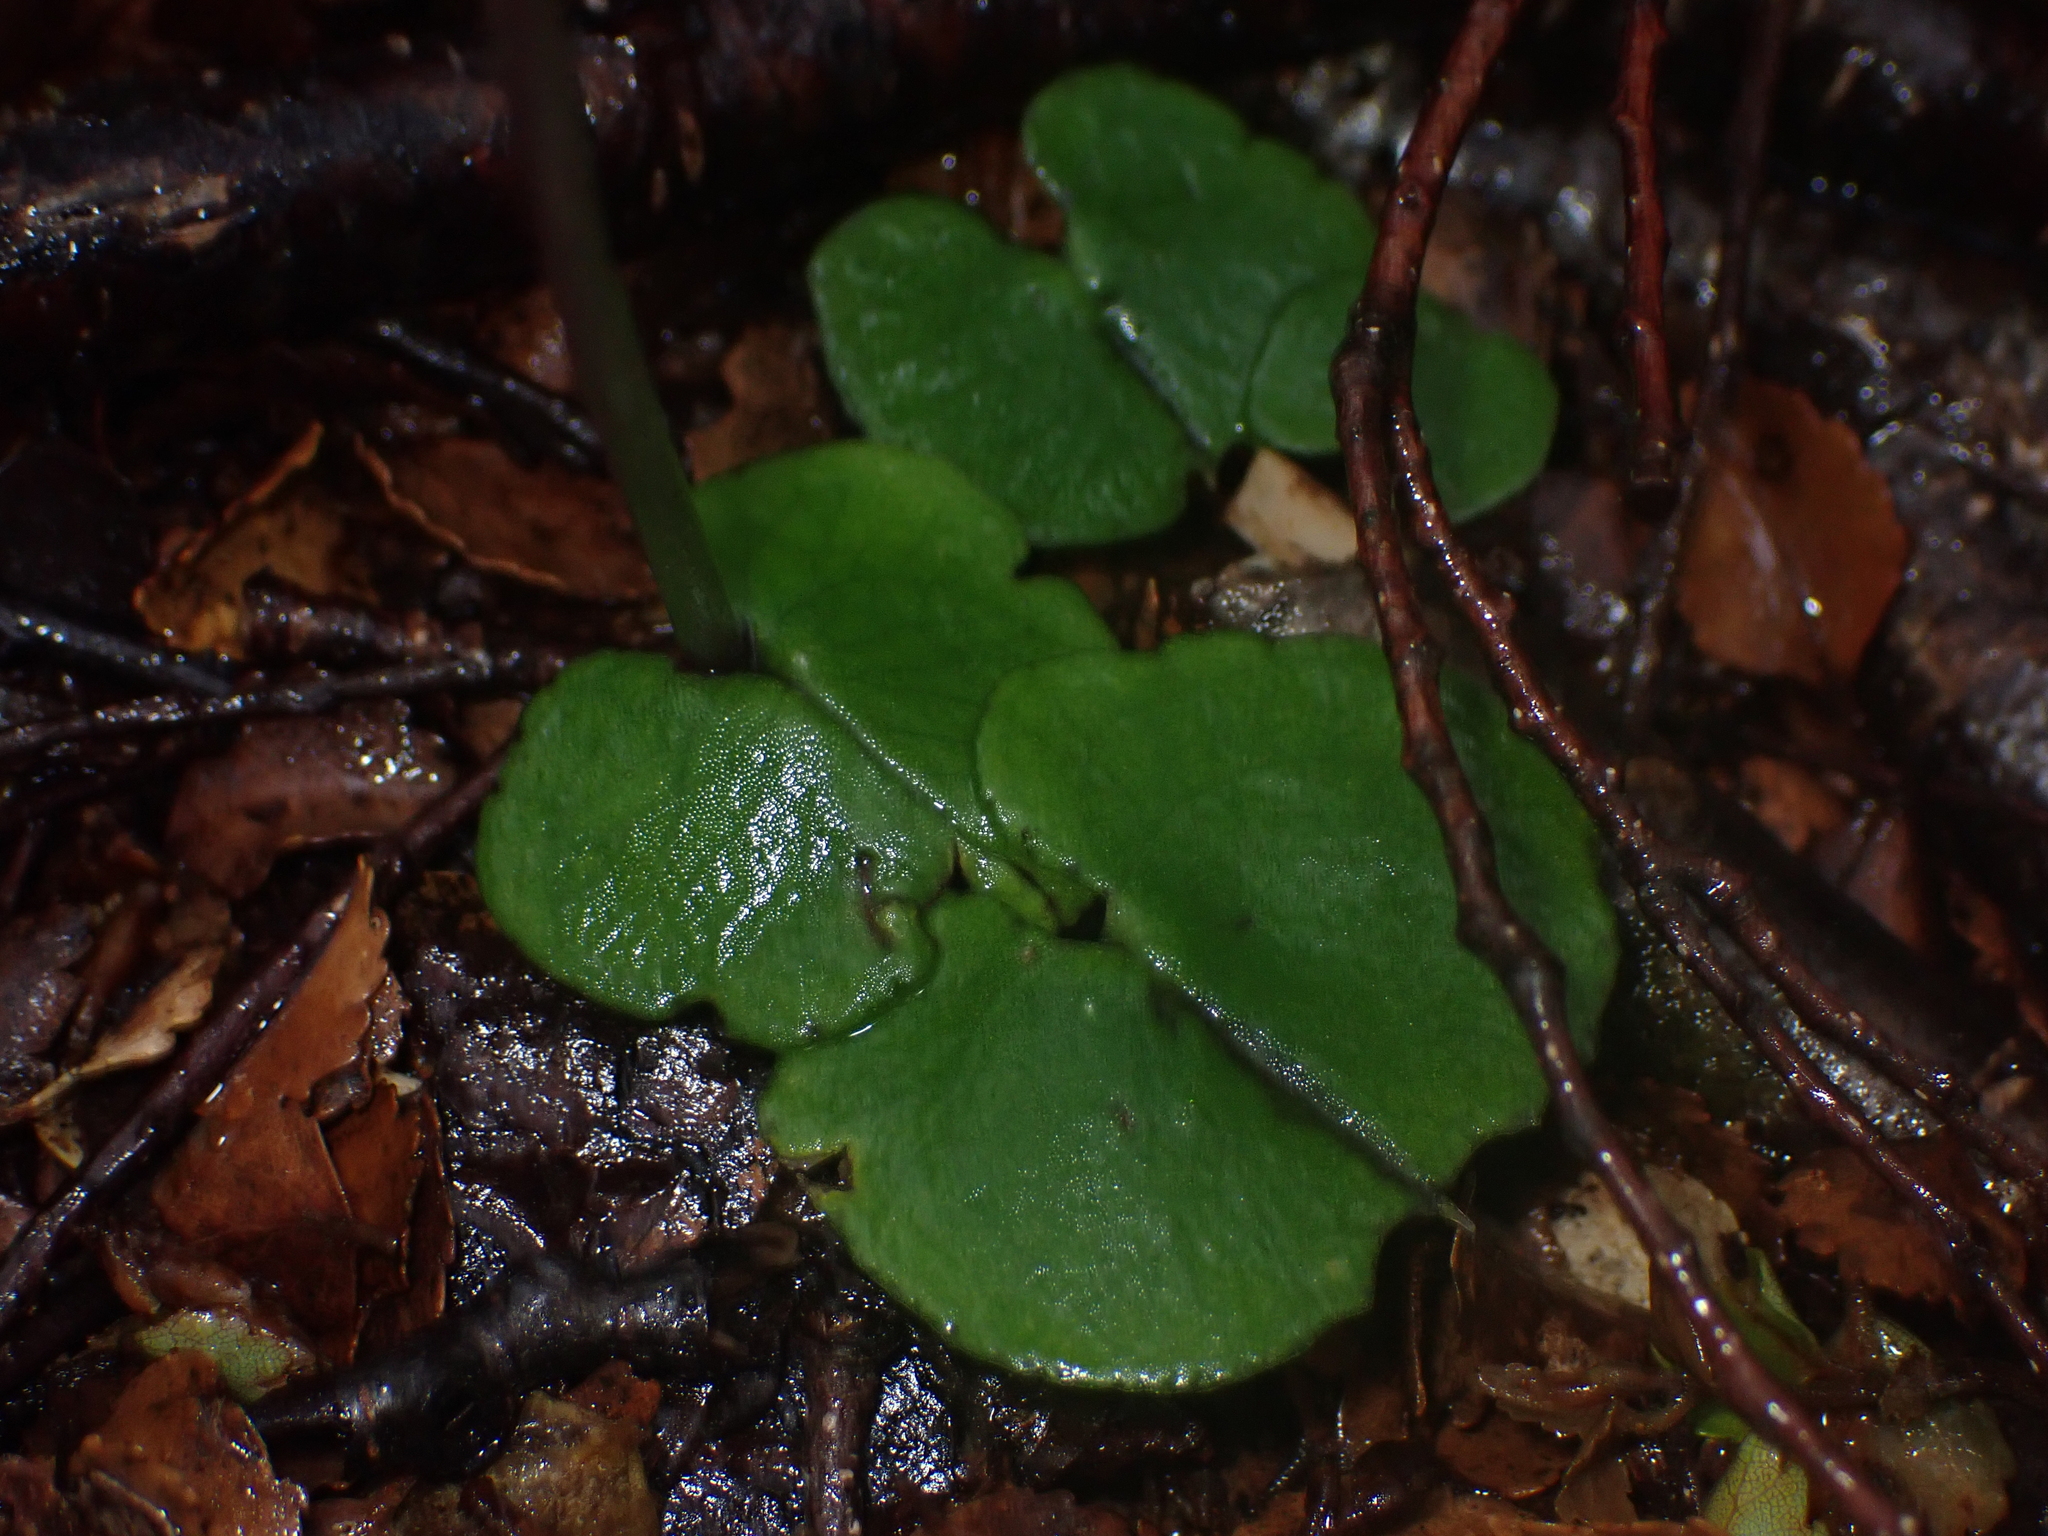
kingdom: Plantae
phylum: Tracheophyta
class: Liliopsida
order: Asparagales
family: Orchidaceae
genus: Corybas
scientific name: Corybas trilobus
